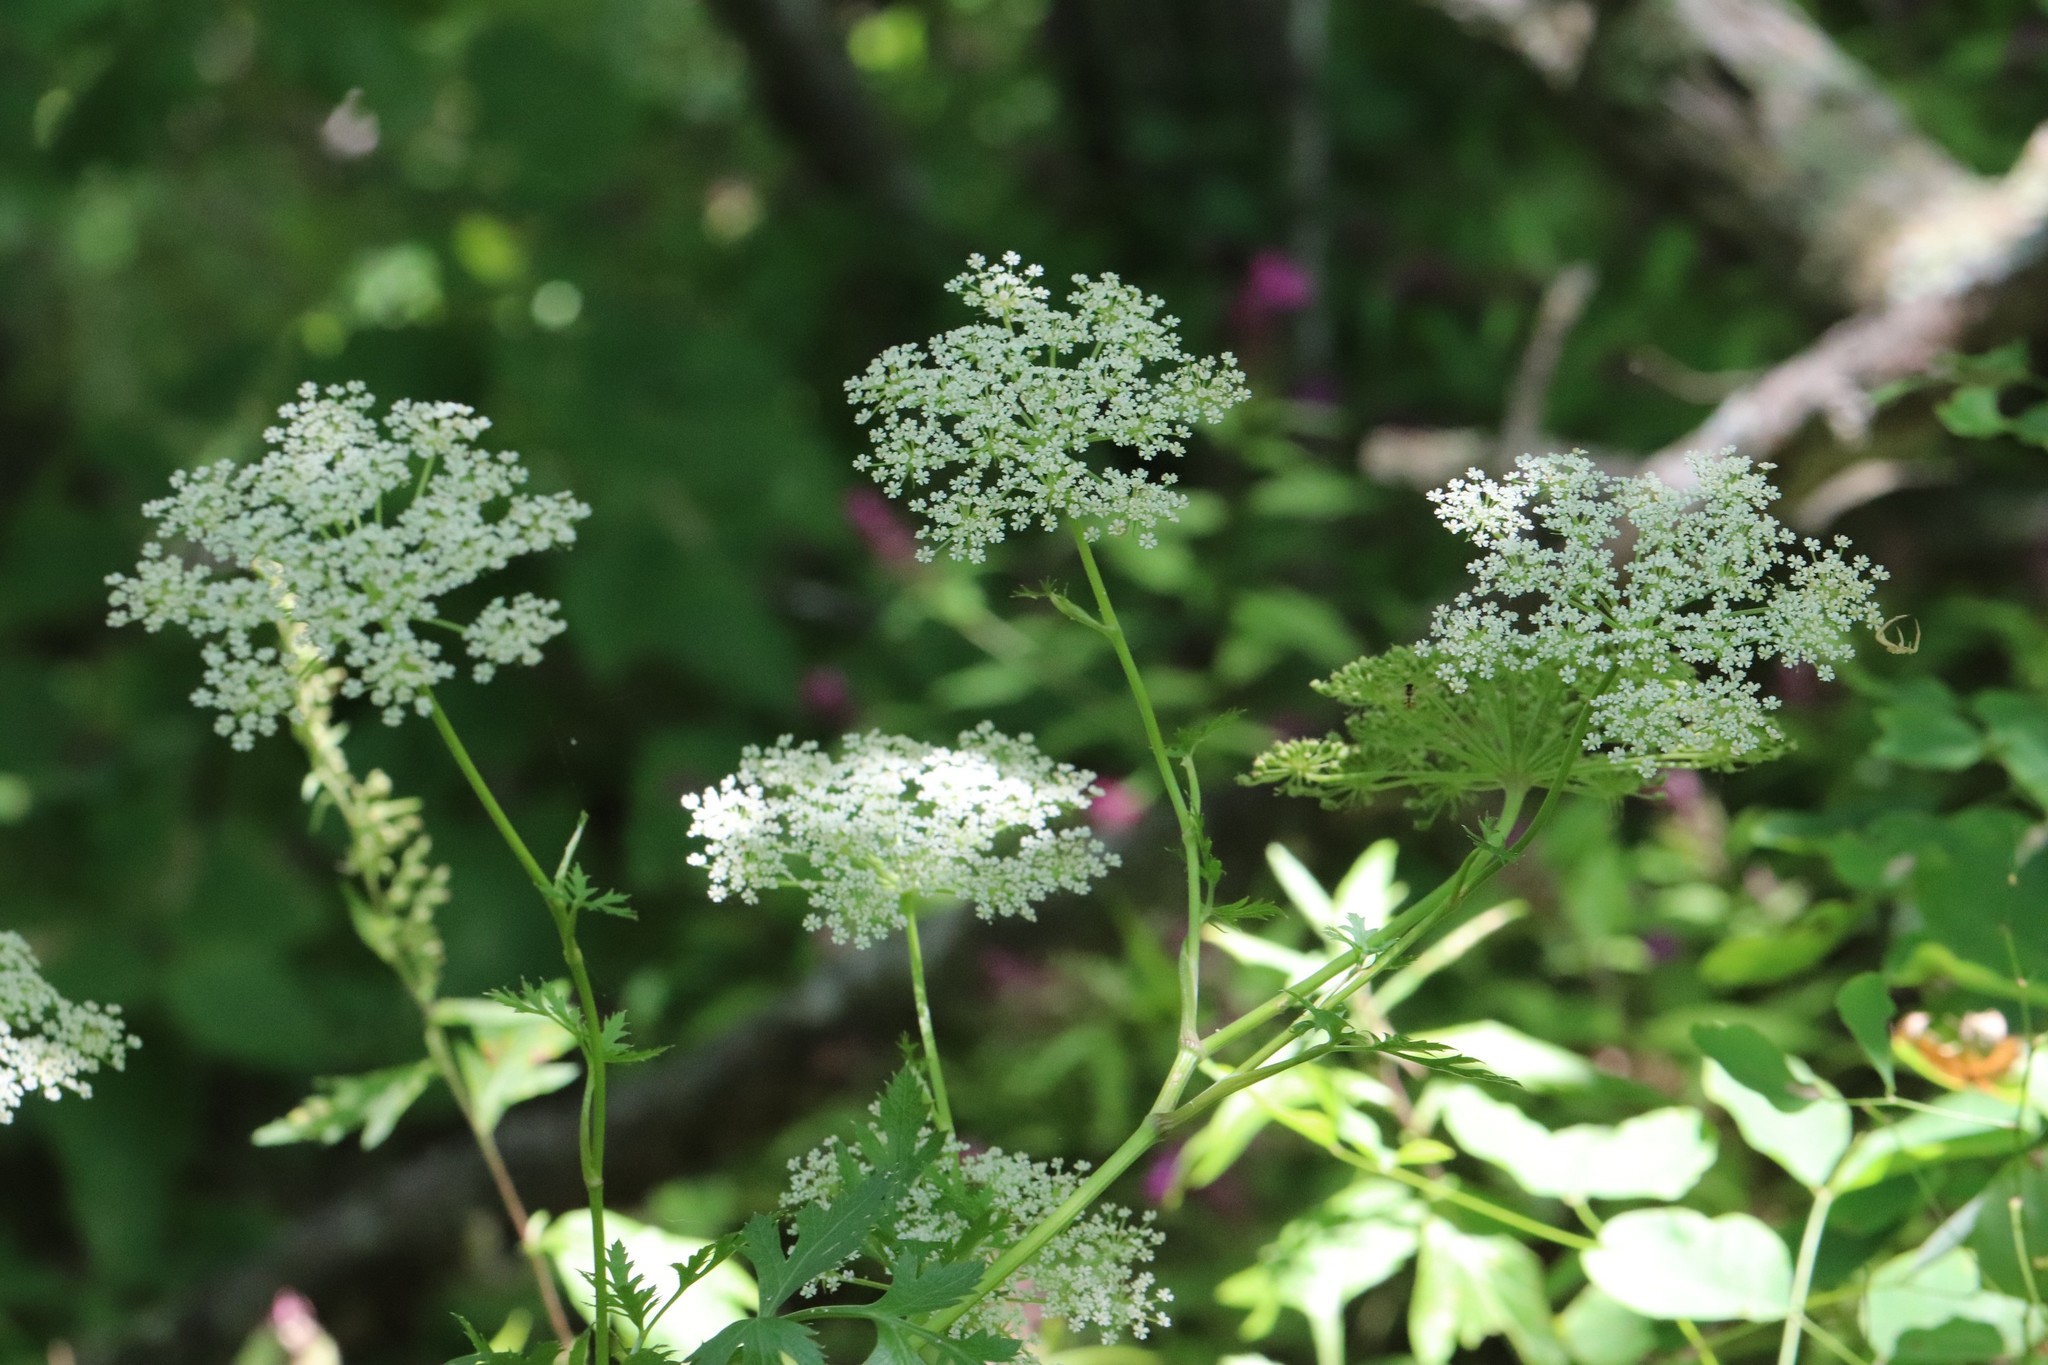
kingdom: Plantae
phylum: Tracheophyta
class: Magnoliopsida
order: Apiales
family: Apiaceae
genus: Kitagawia
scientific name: Kitagawia terebinthacea
